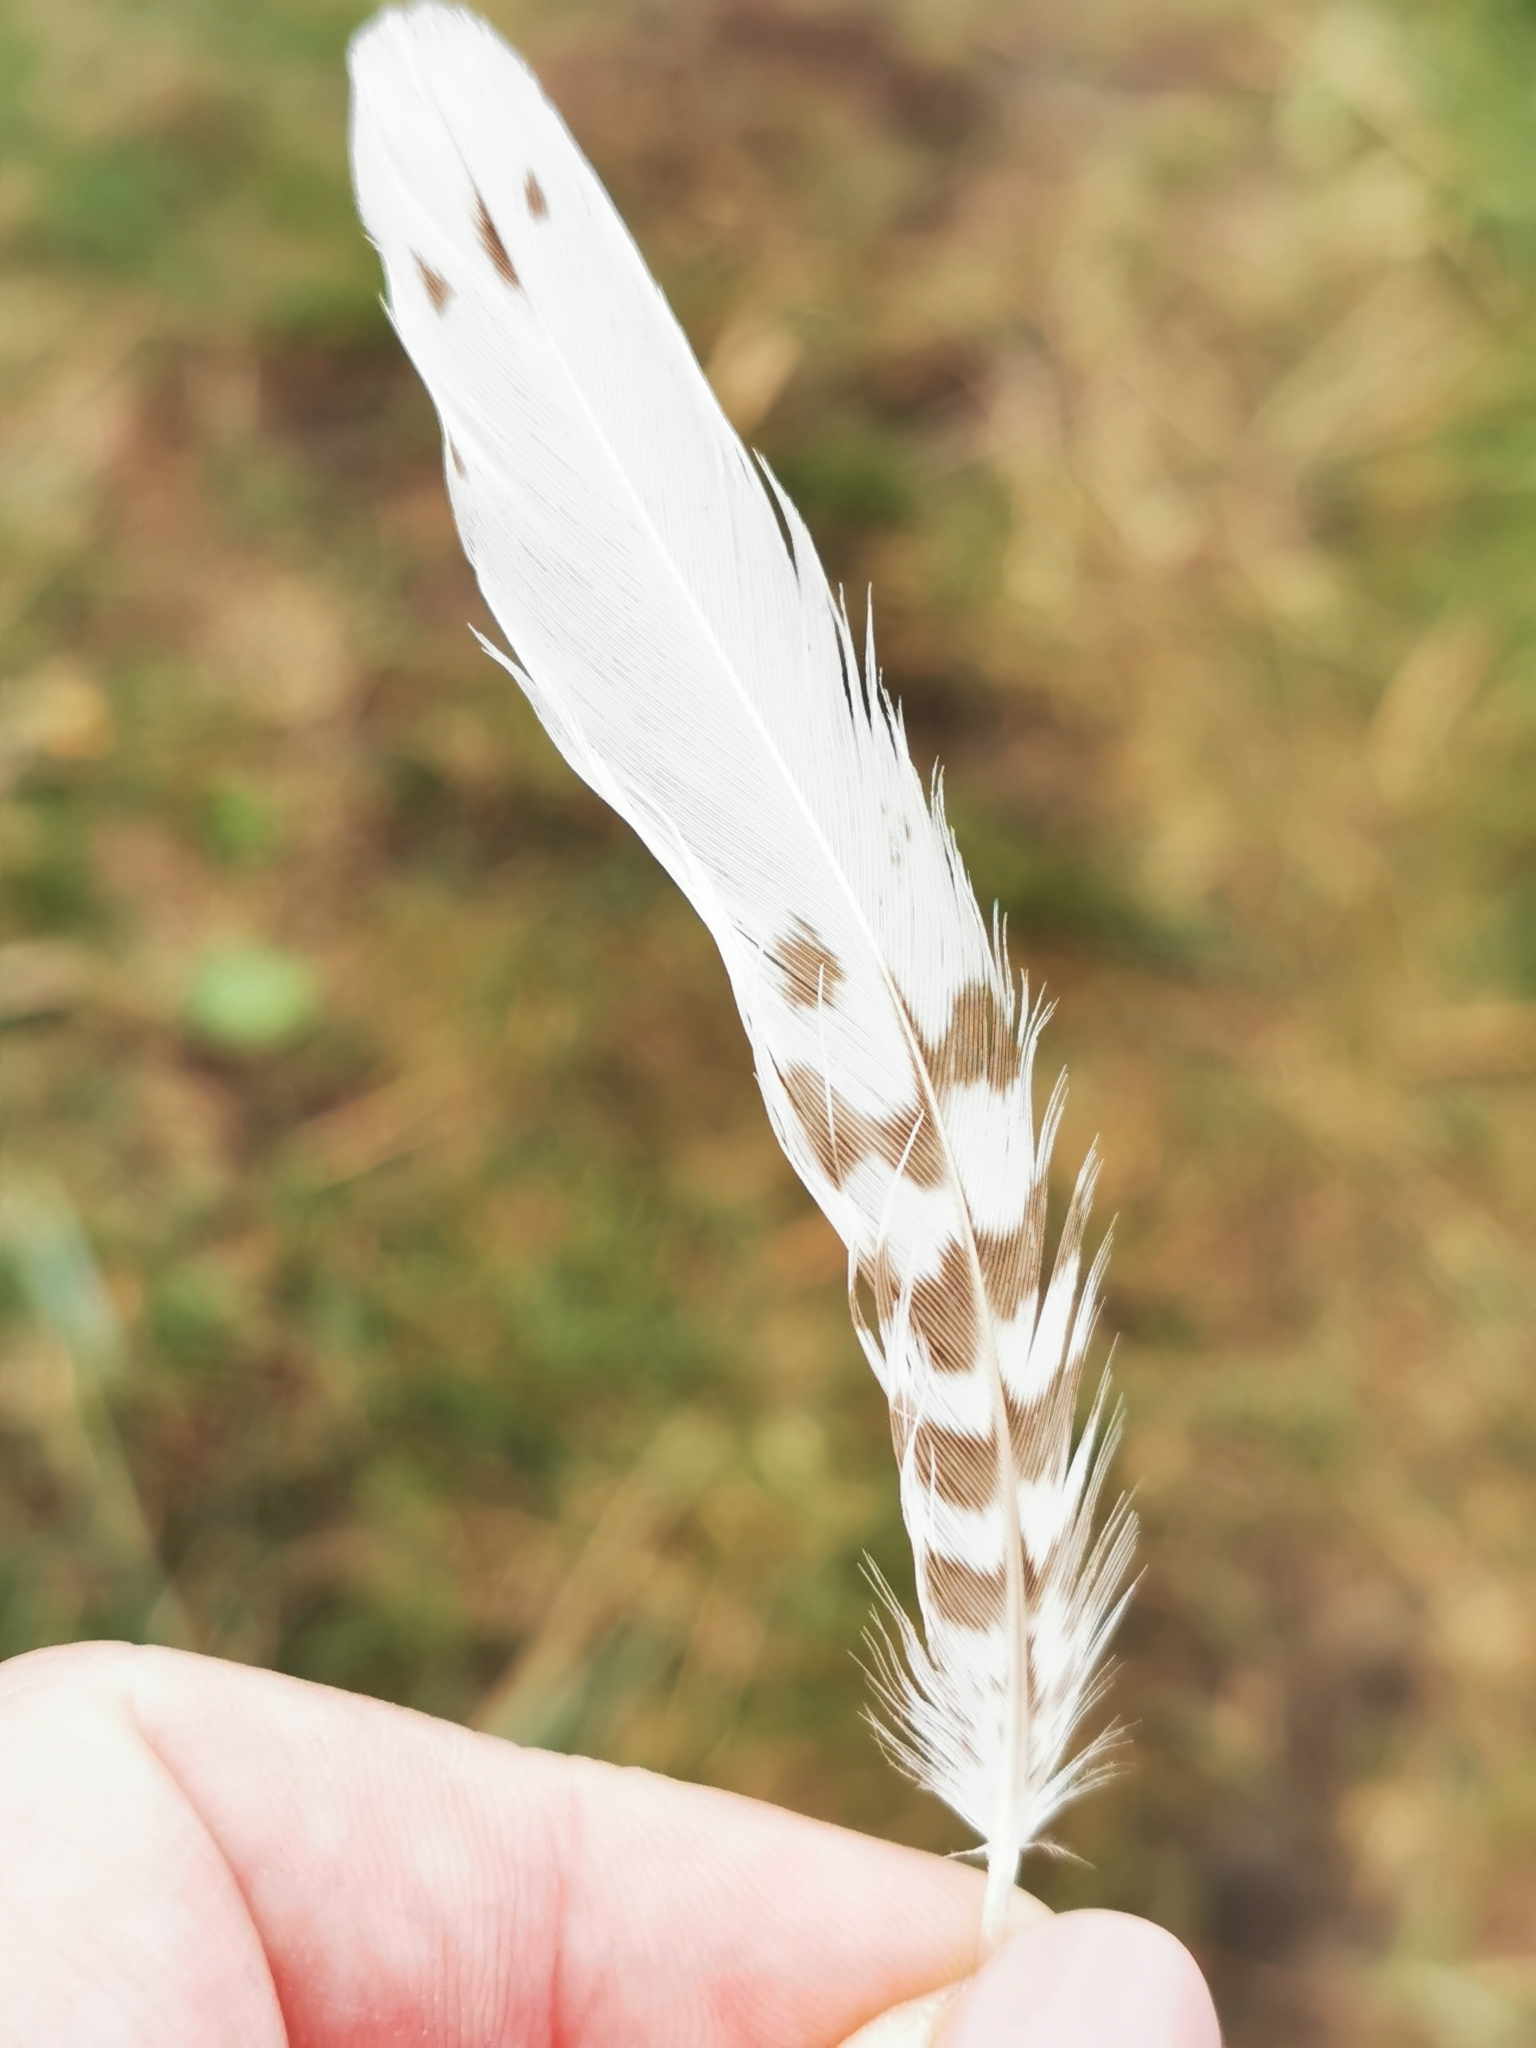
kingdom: Animalia
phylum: Chordata
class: Aves
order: Charadriiformes
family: Scolopacidae
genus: Numenius
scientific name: Numenius arquata
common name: Eurasian curlew
